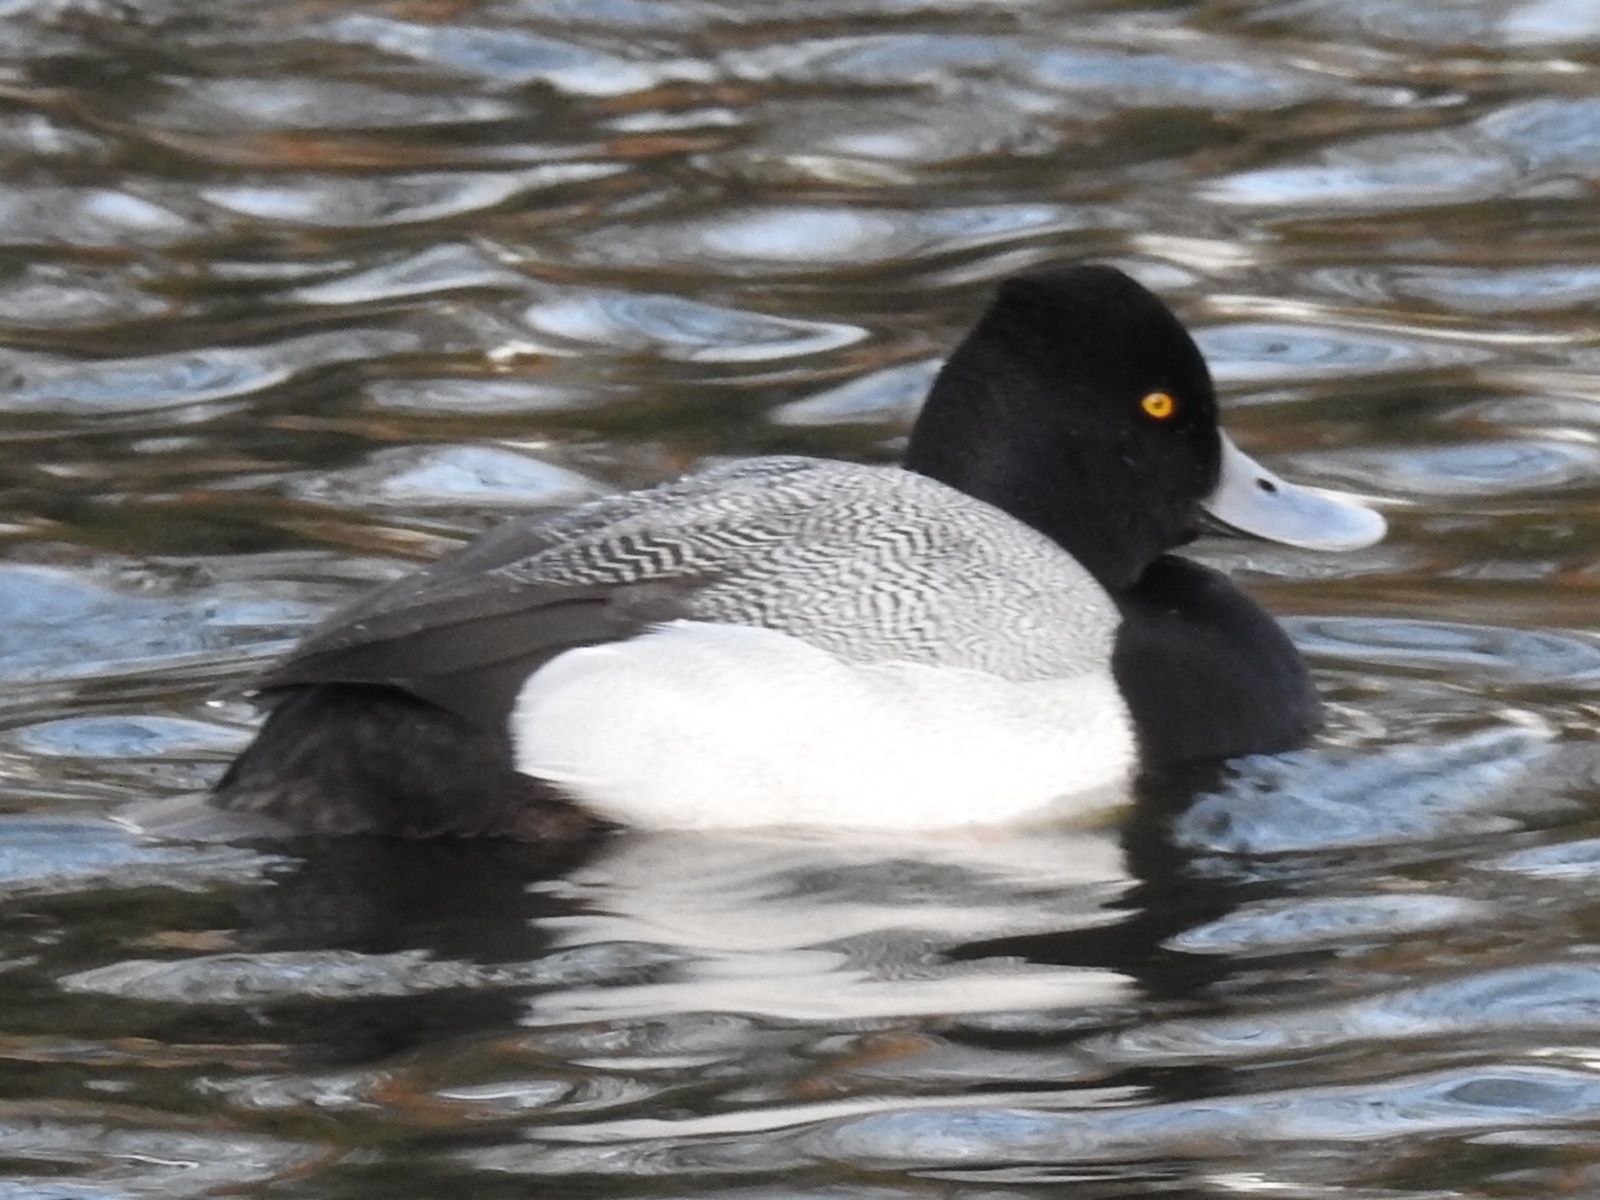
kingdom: Animalia
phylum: Chordata
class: Aves
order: Anseriformes
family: Anatidae
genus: Aythya
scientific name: Aythya affinis
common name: Lesser scaup
